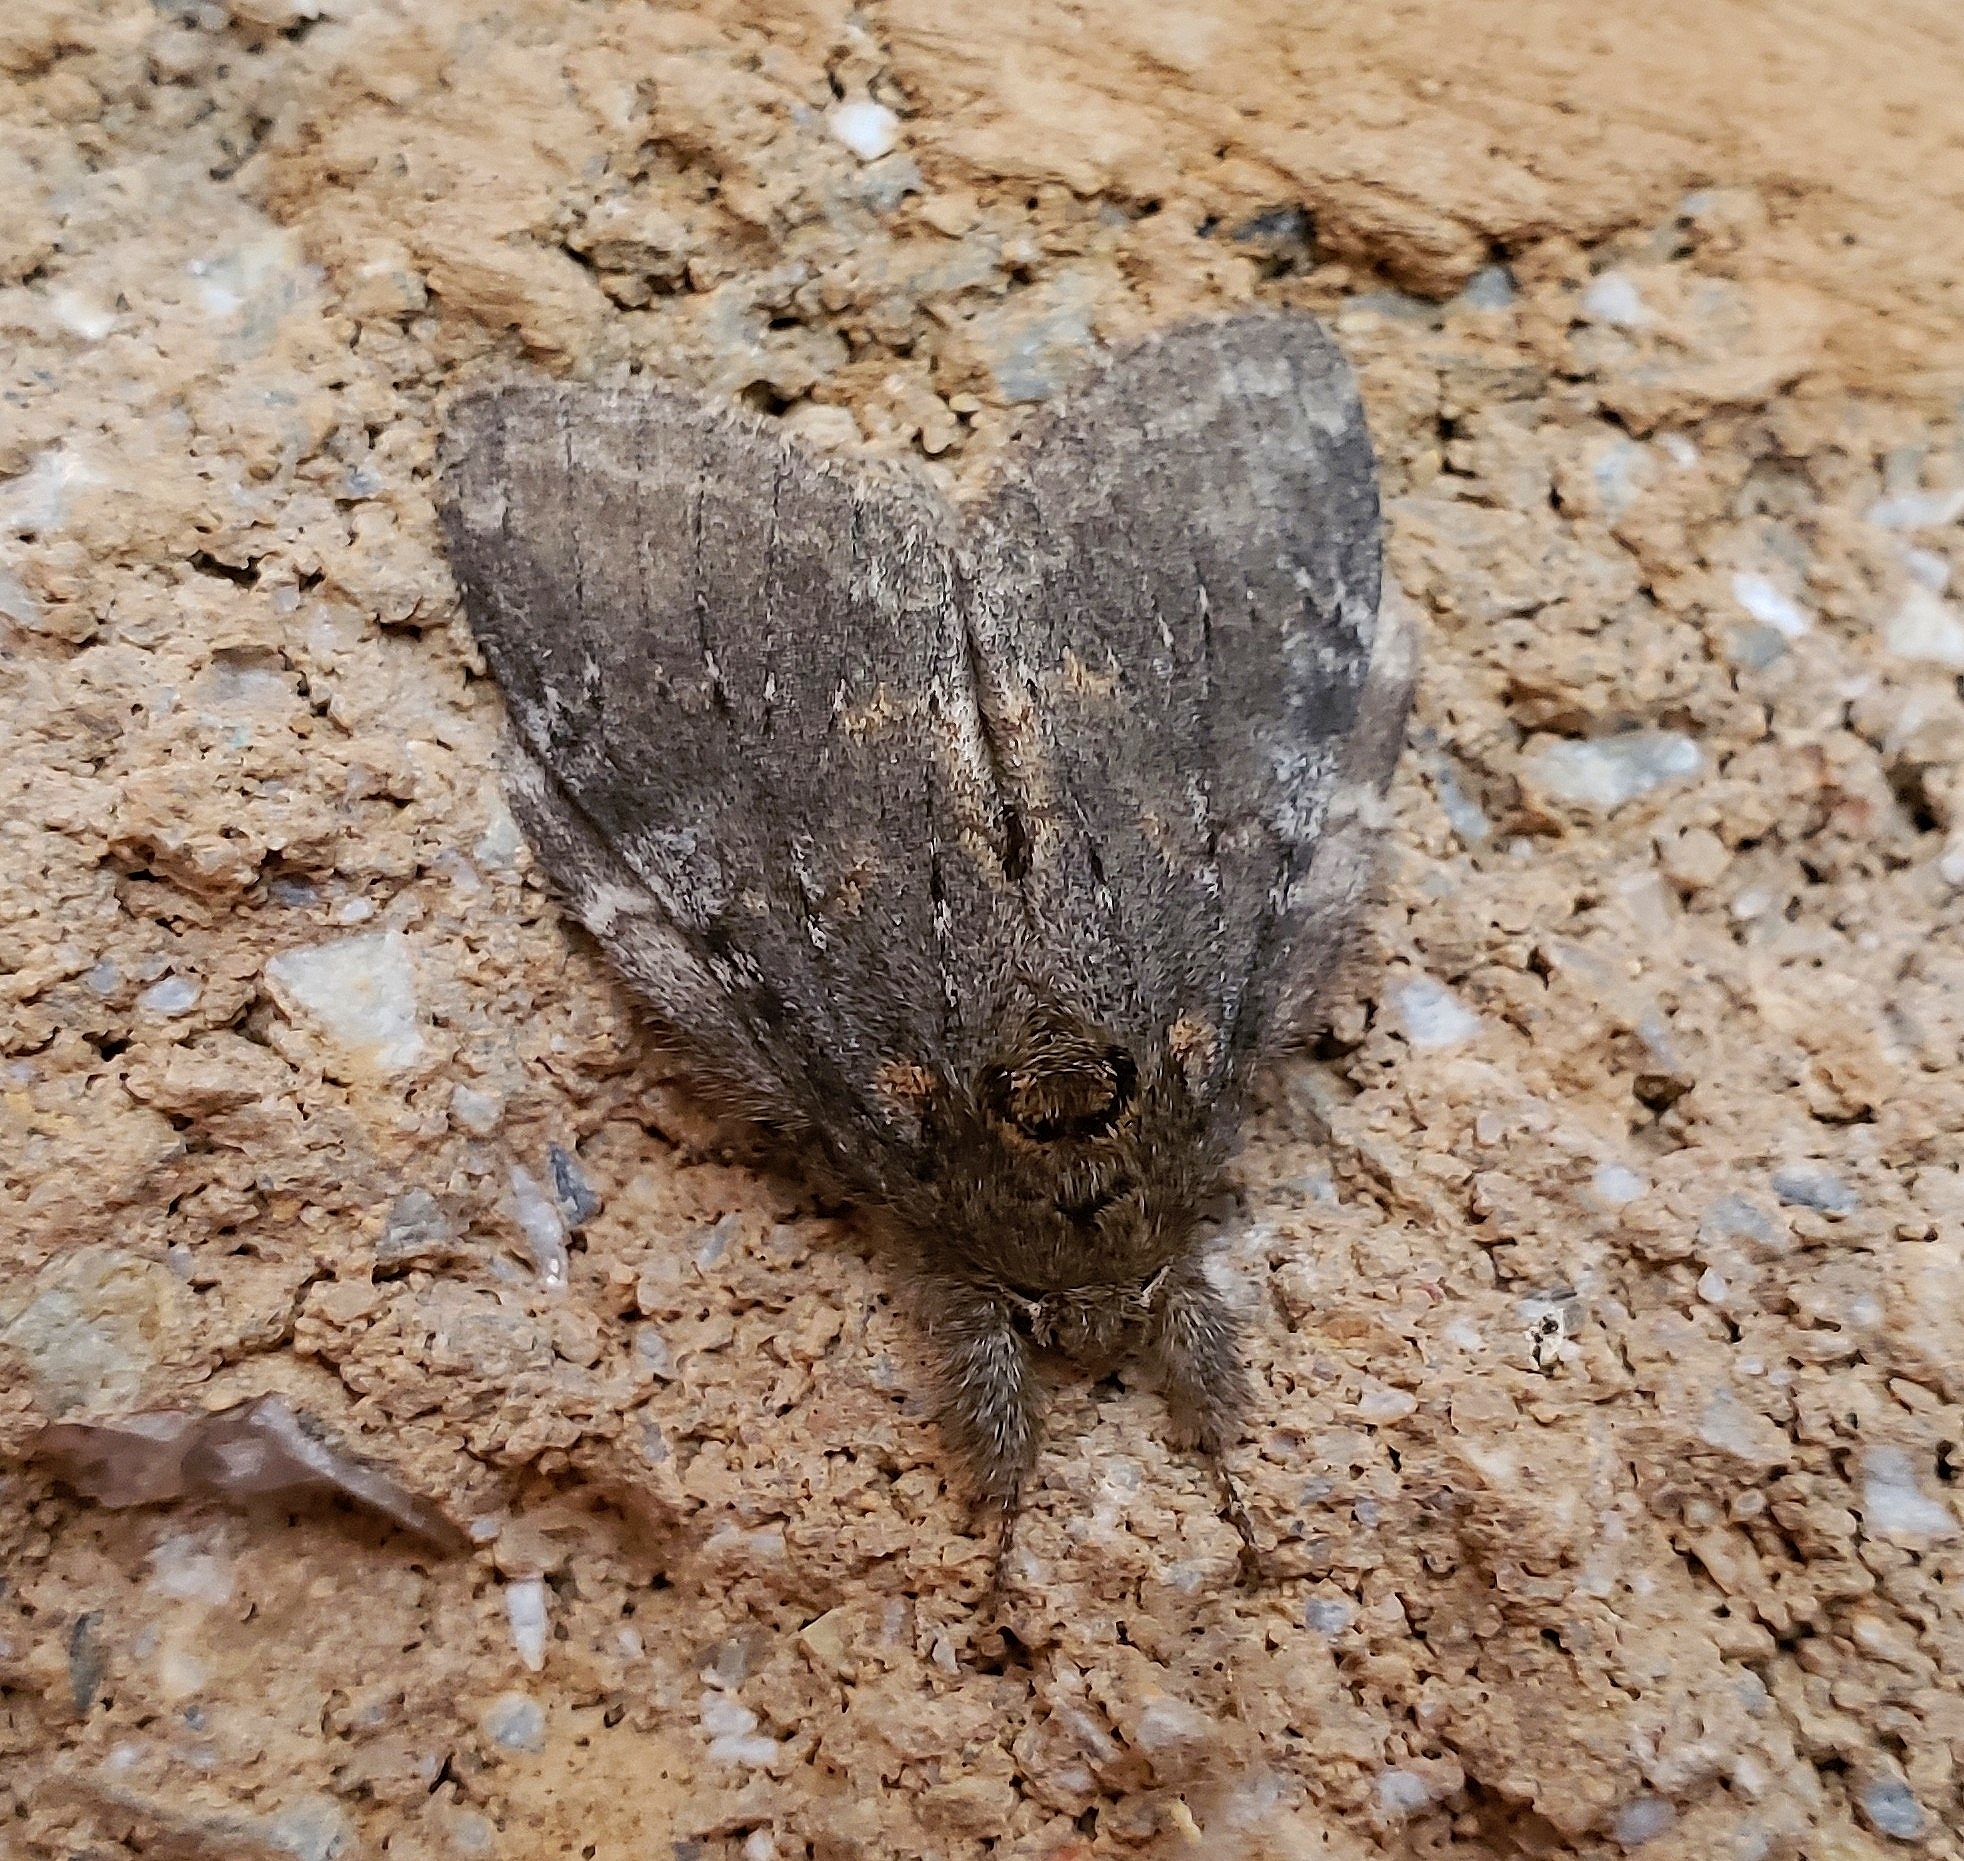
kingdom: Animalia
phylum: Arthropoda
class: Insecta
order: Lepidoptera
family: Notodontidae
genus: Peridea
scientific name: Peridea angulosa
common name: Angulose prominent
